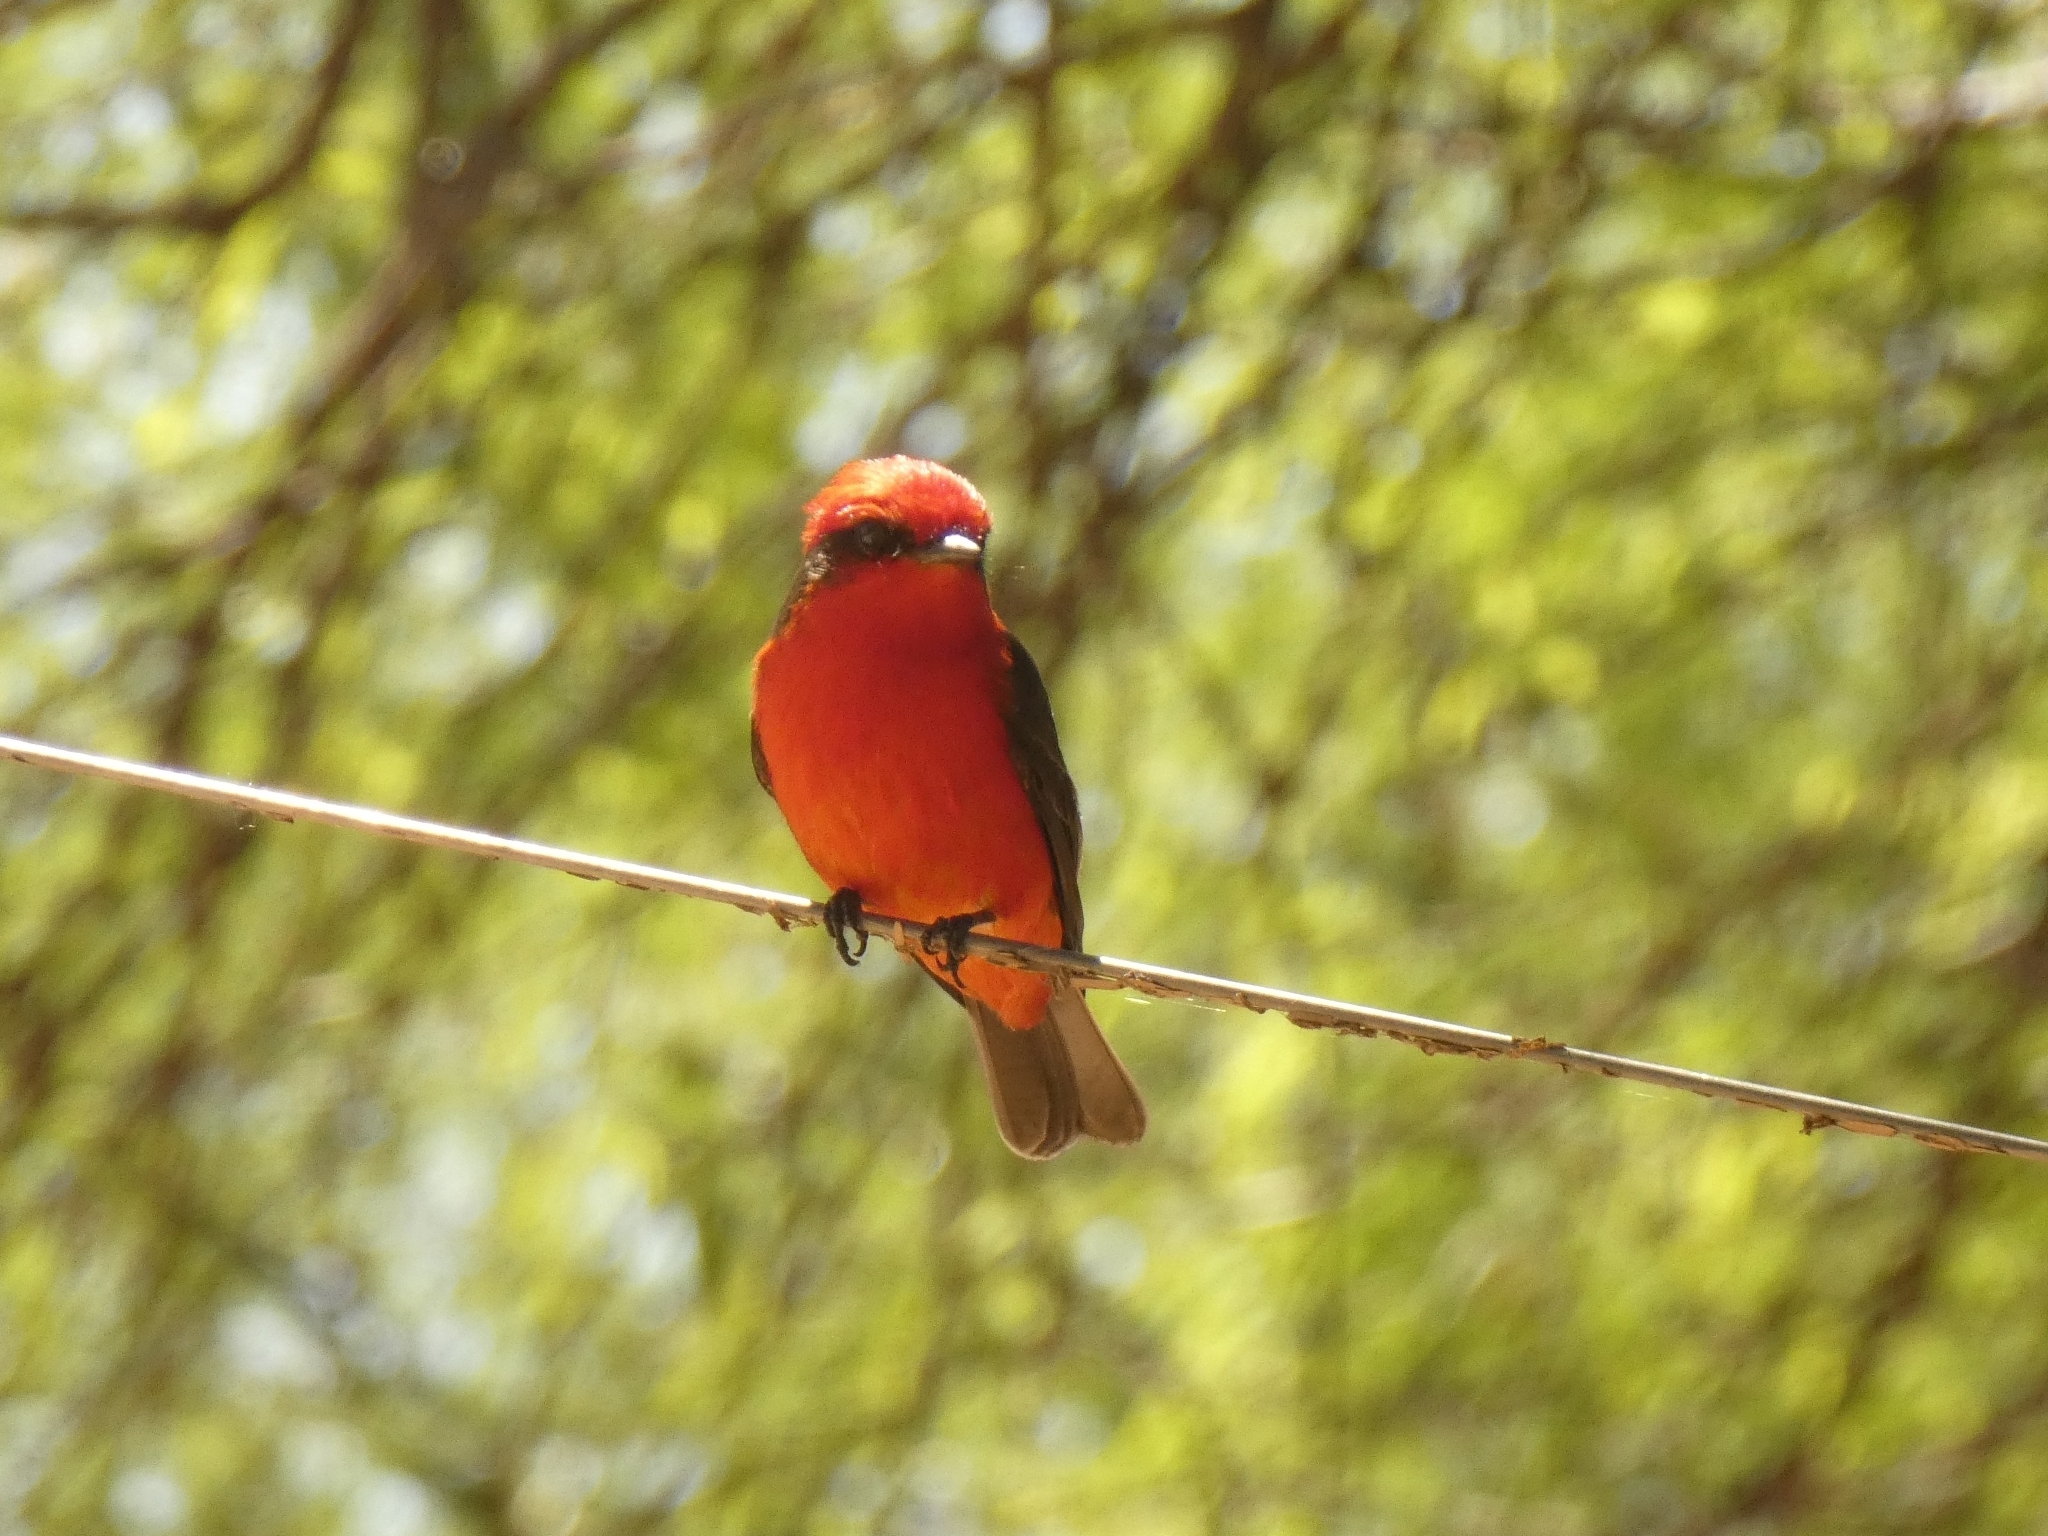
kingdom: Animalia
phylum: Chordata
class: Aves
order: Passeriformes
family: Tyrannidae
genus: Pyrocephalus
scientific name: Pyrocephalus rubinus
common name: Vermilion flycatcher
